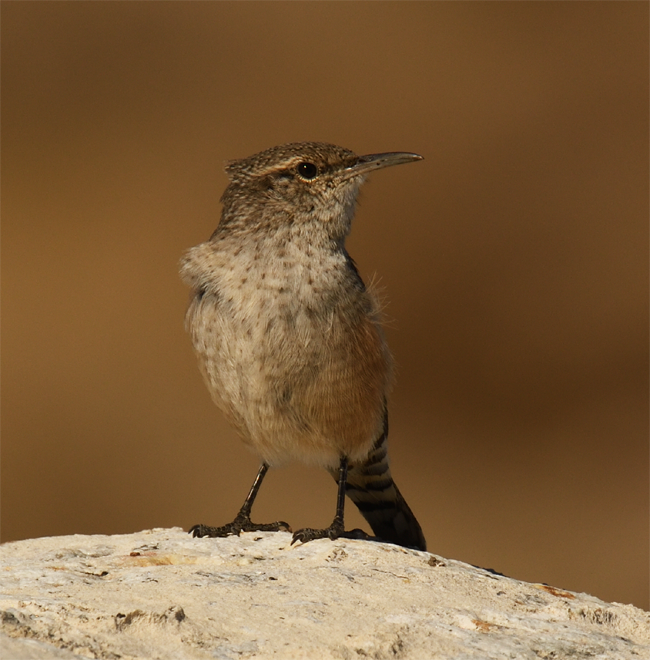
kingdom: Animalia
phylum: Chordata
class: Aves
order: Passeriformes
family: Troglodytidae
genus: Salpinctes
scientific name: Salpinctes obsoletus
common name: Rock wren
